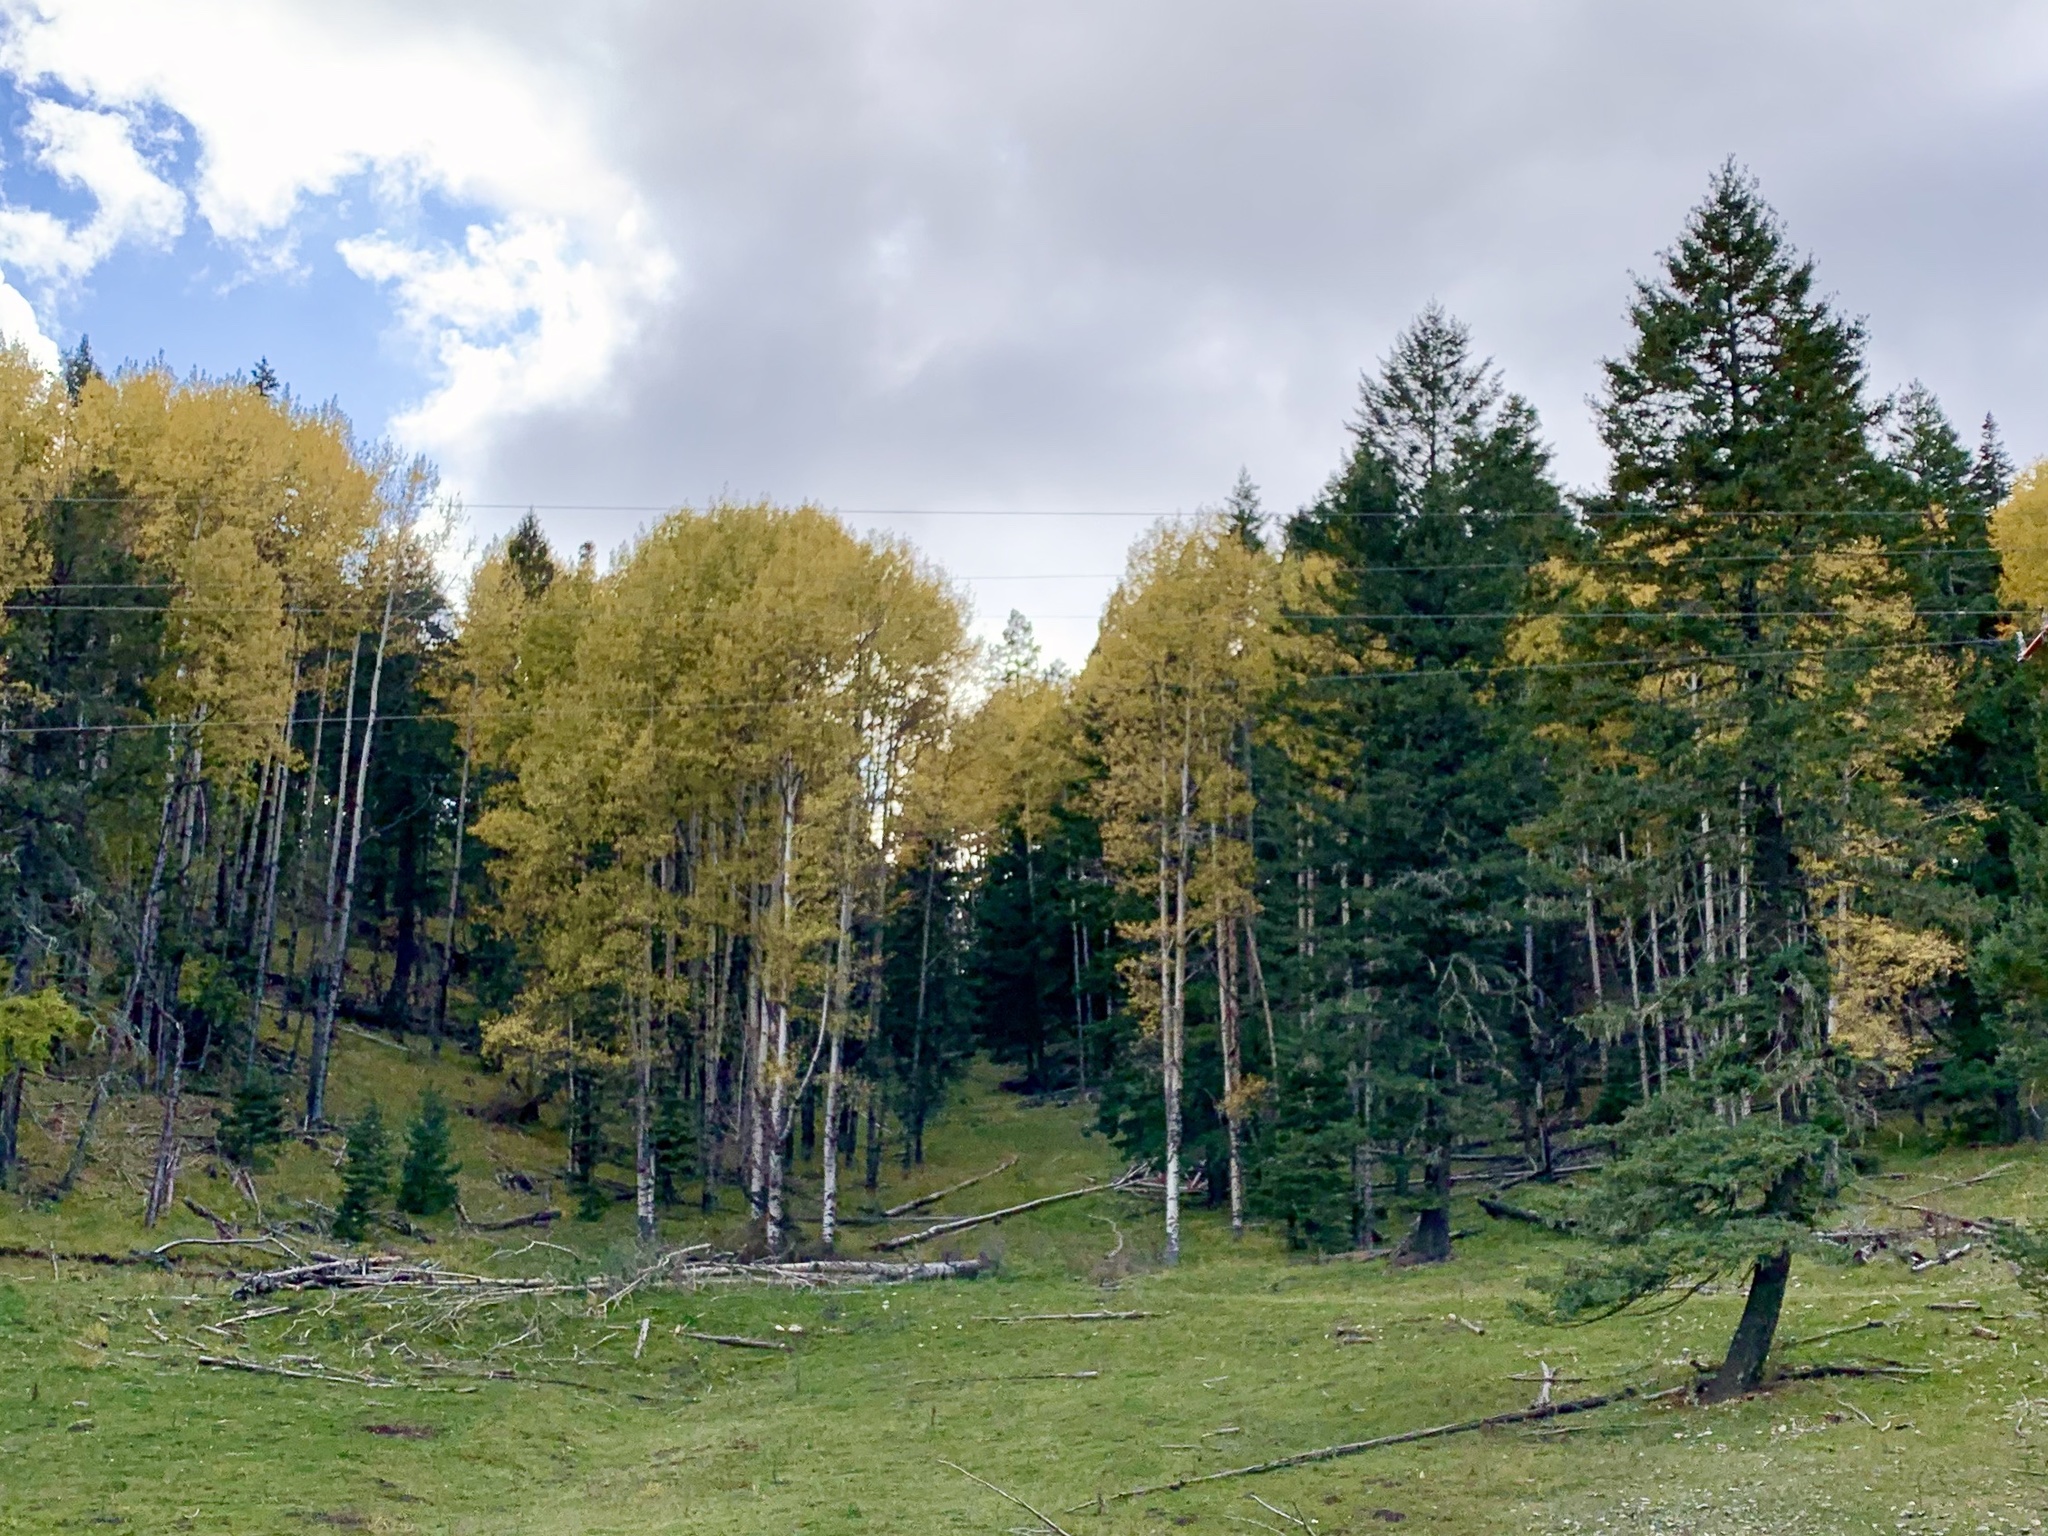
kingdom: Plantae
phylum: Tracheophyta
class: Magnoliopsida
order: Malpighiales
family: Salicaceae
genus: Populus
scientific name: Populus tremuloides
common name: Quaking aspen
